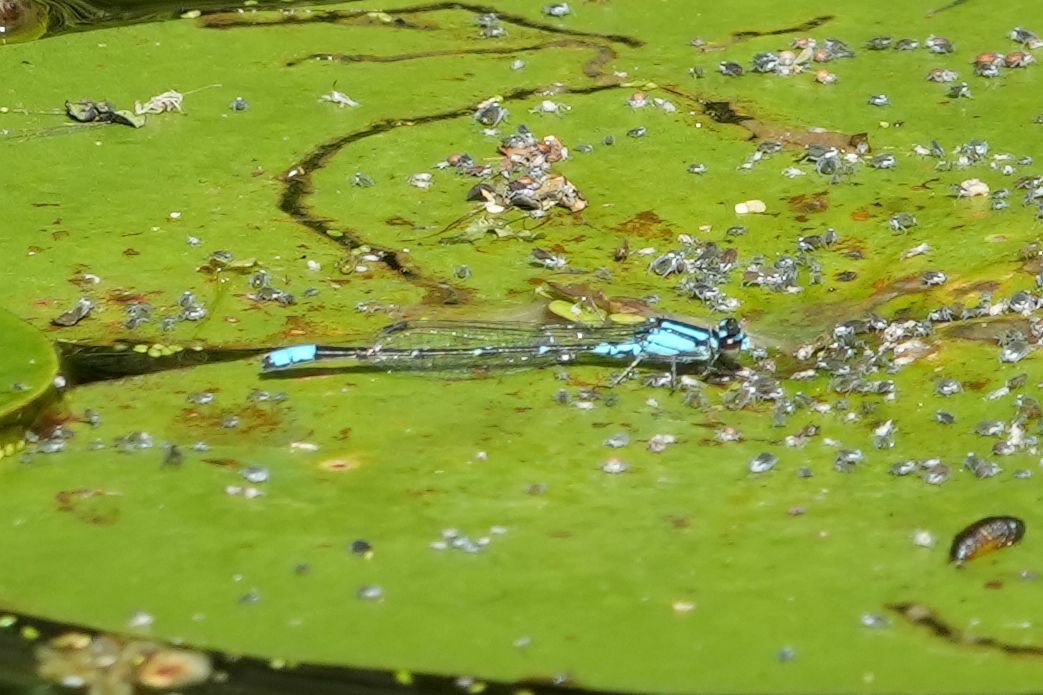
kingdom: Animalia
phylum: Arthropoda
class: Insecta
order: Odonata
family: Coenagrionidae
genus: Enallagma
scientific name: Enallagma geminatum
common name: Skimming bluet
